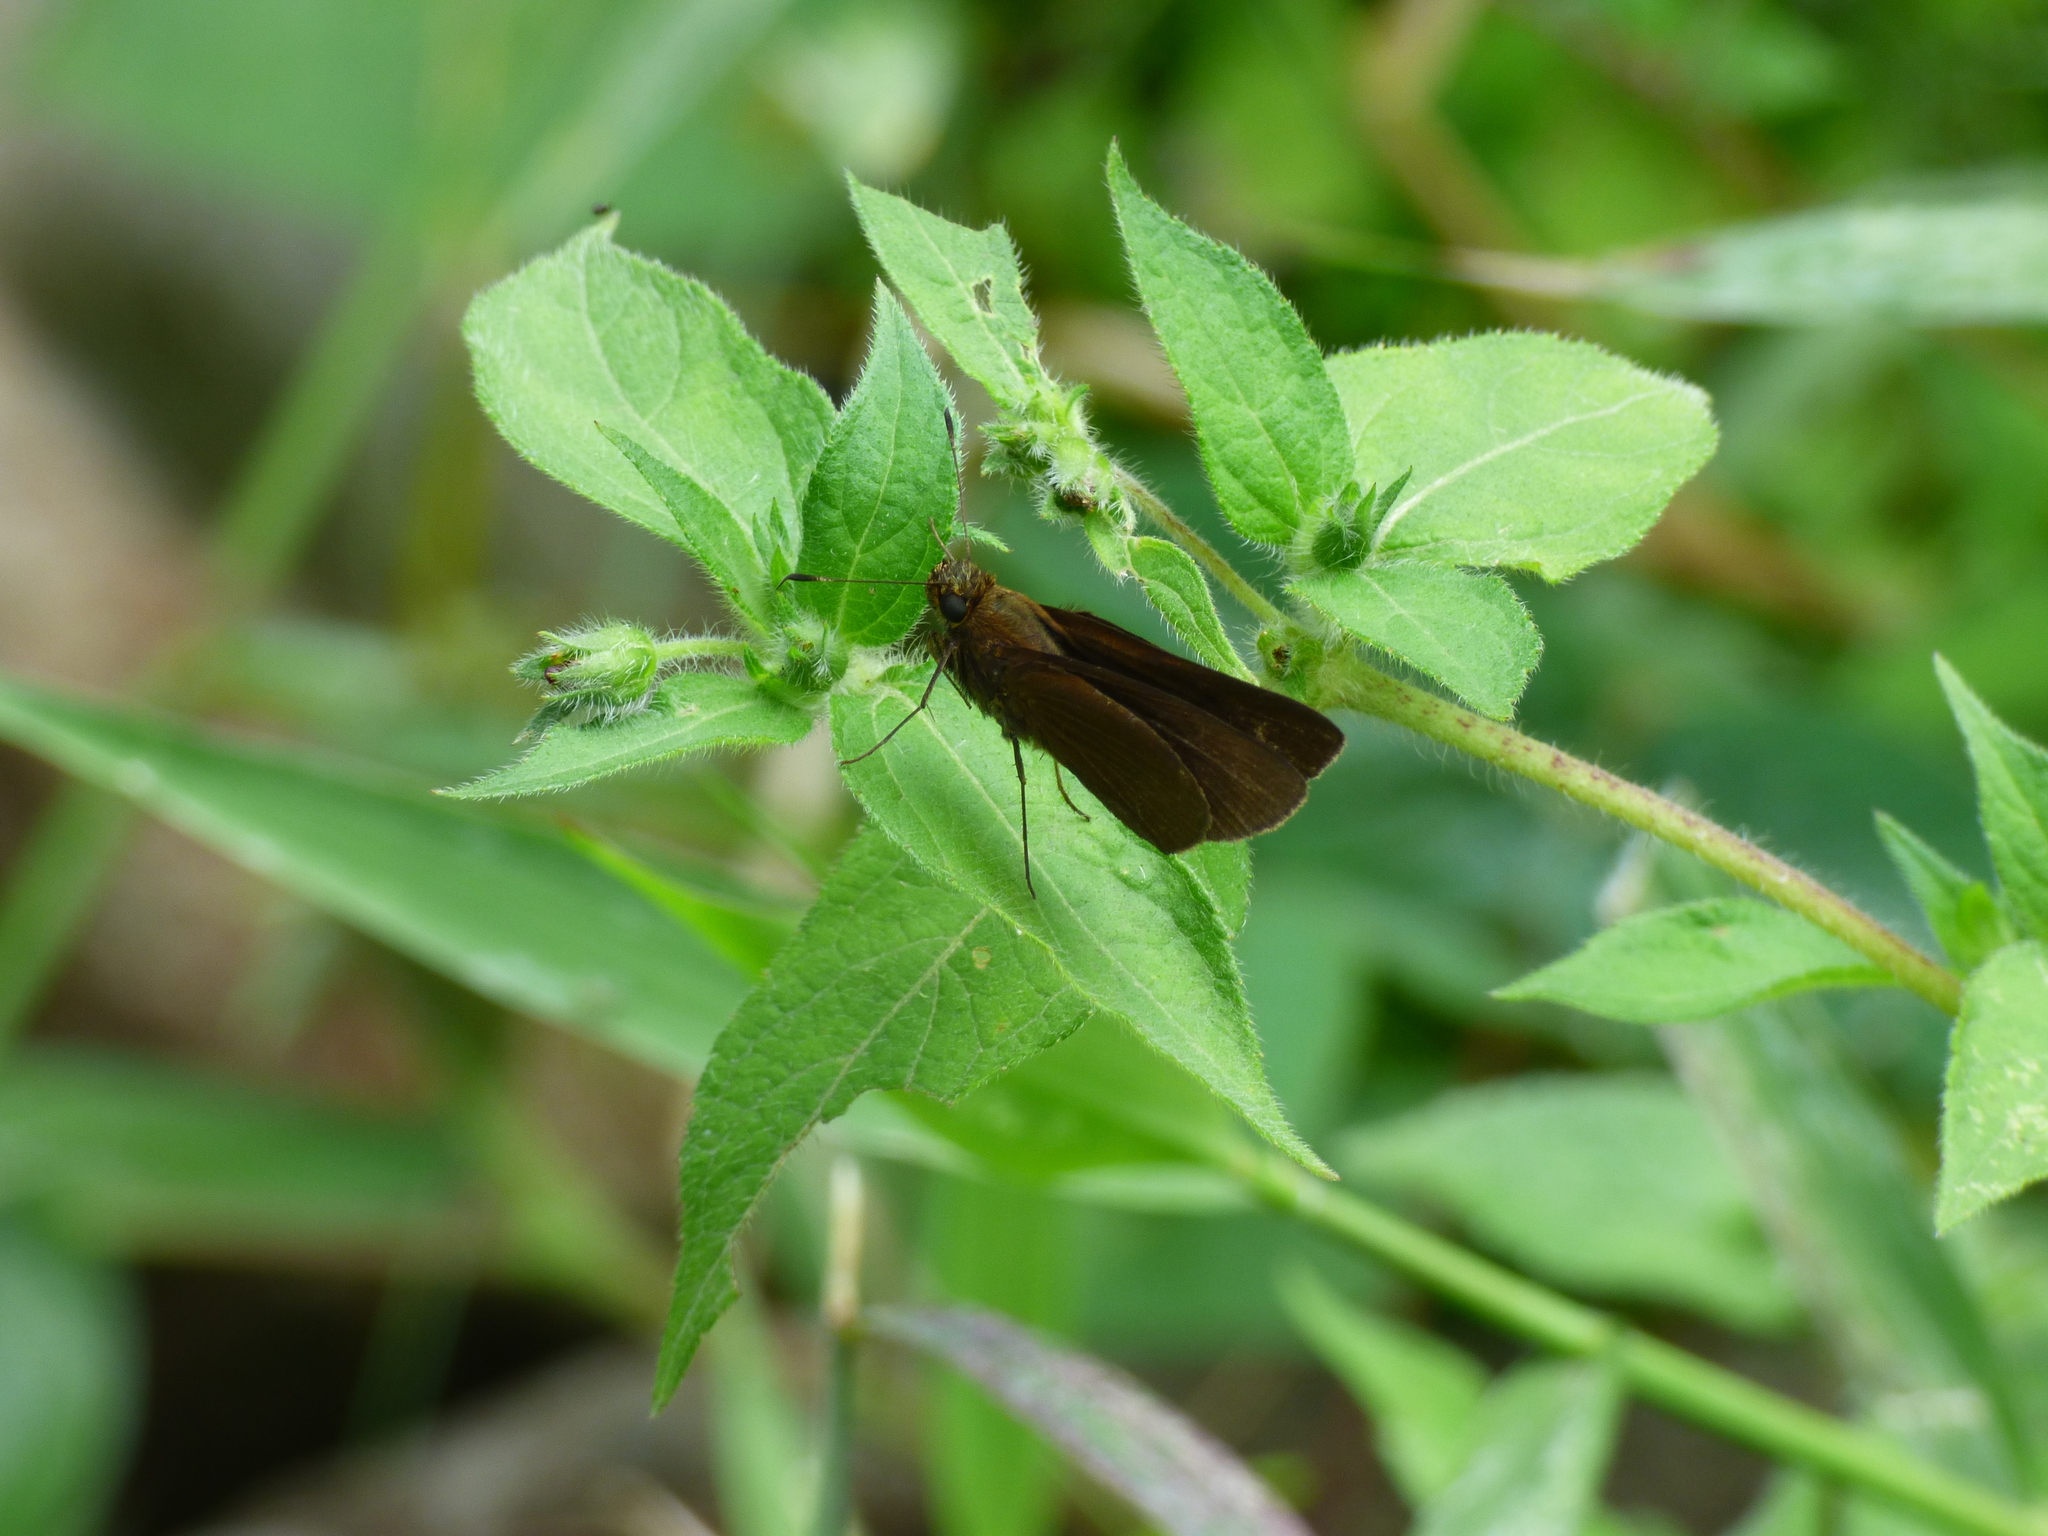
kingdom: Animalia
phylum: Arthropoda
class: Insecta
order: Lepidoptera
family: Hesperiidae
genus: Dalla
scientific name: Dalla
